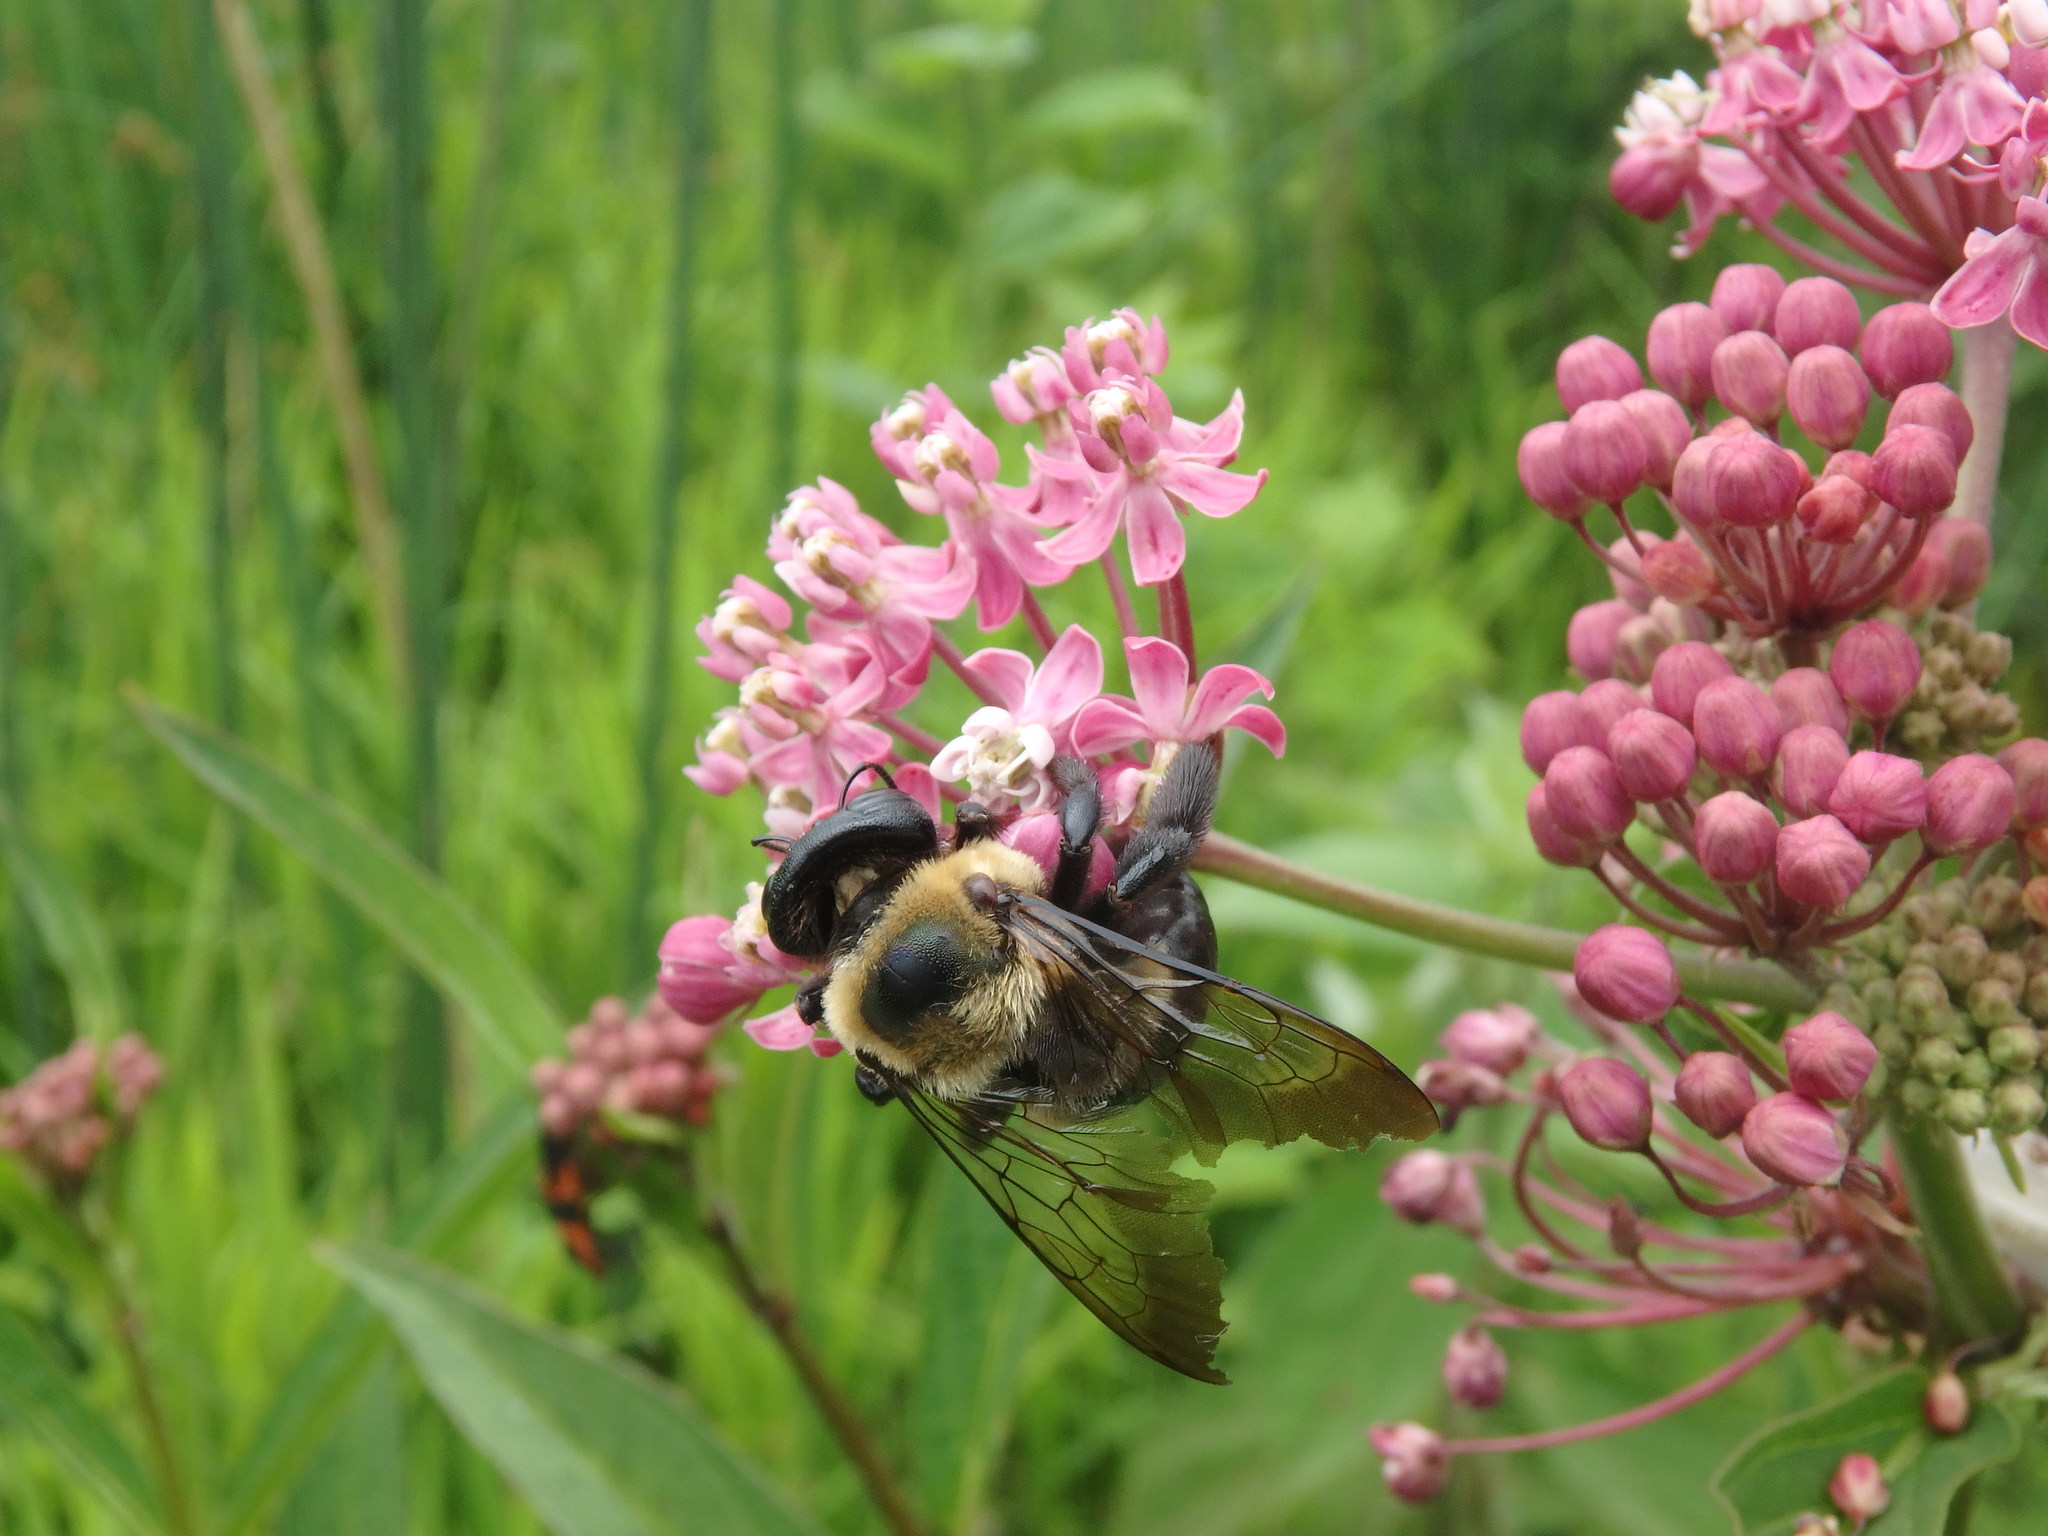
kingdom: Animalia
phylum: Arthropoda
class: Insecta
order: Hymenoptera
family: Apidae
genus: Xylocopa
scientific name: Xylocopa virginica
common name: Carpenter bee
